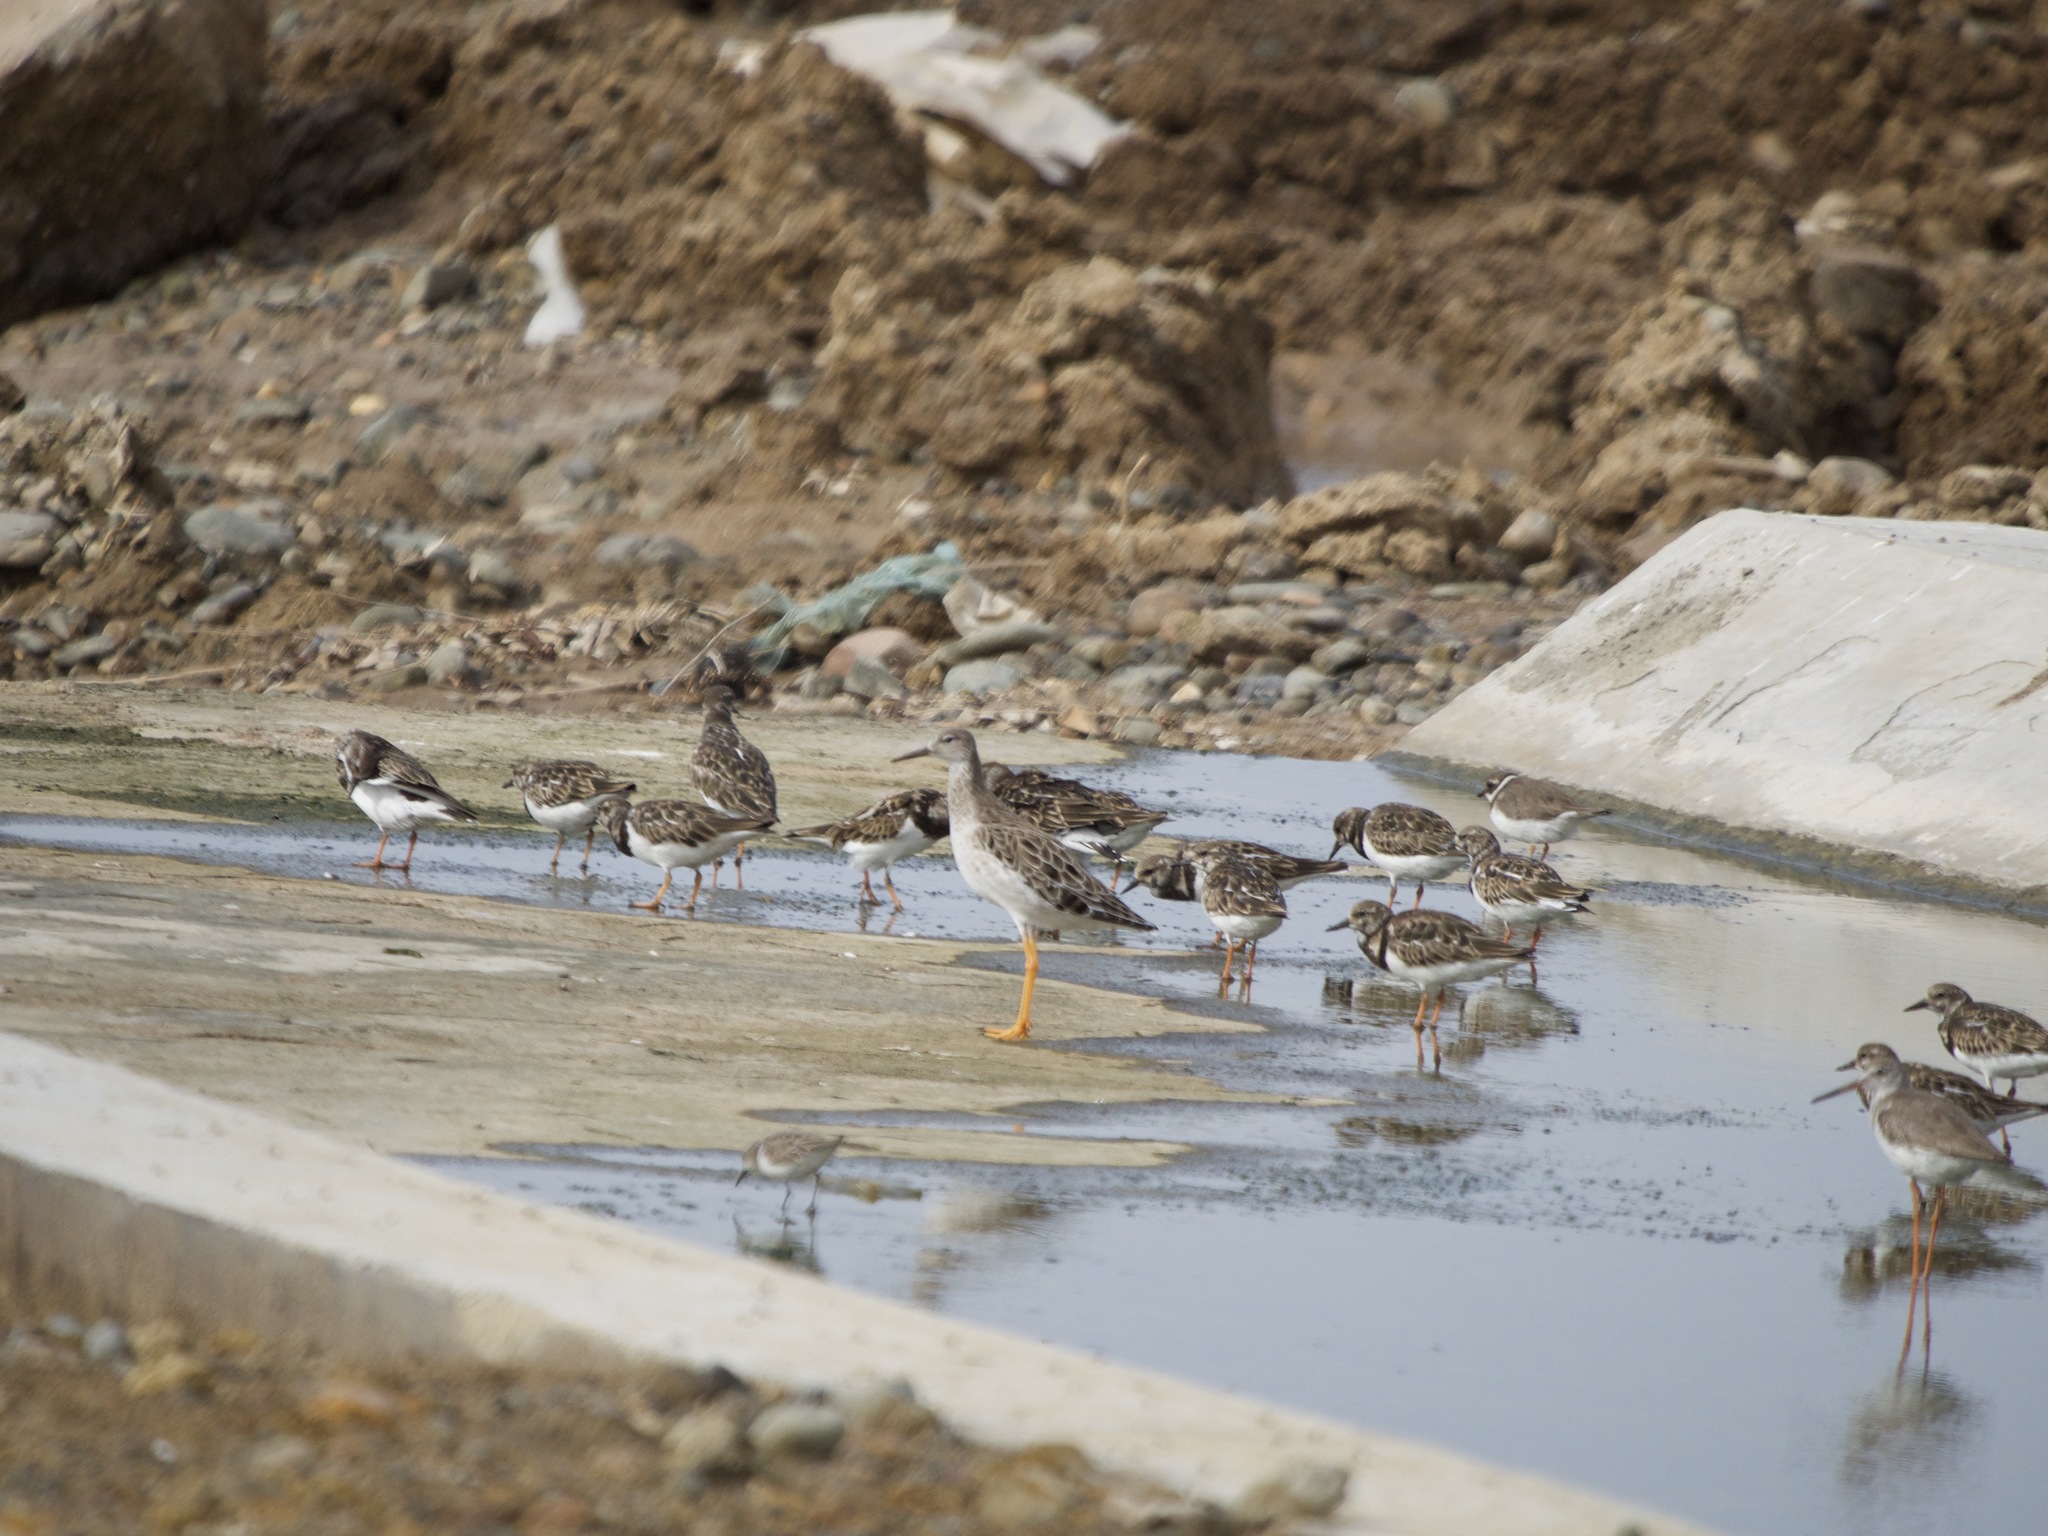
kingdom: Animalia
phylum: Chordata
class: Aves
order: Charadriiformes
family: Scolopacidae
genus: Calidris
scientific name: Calidris pugnax
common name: Ruff
